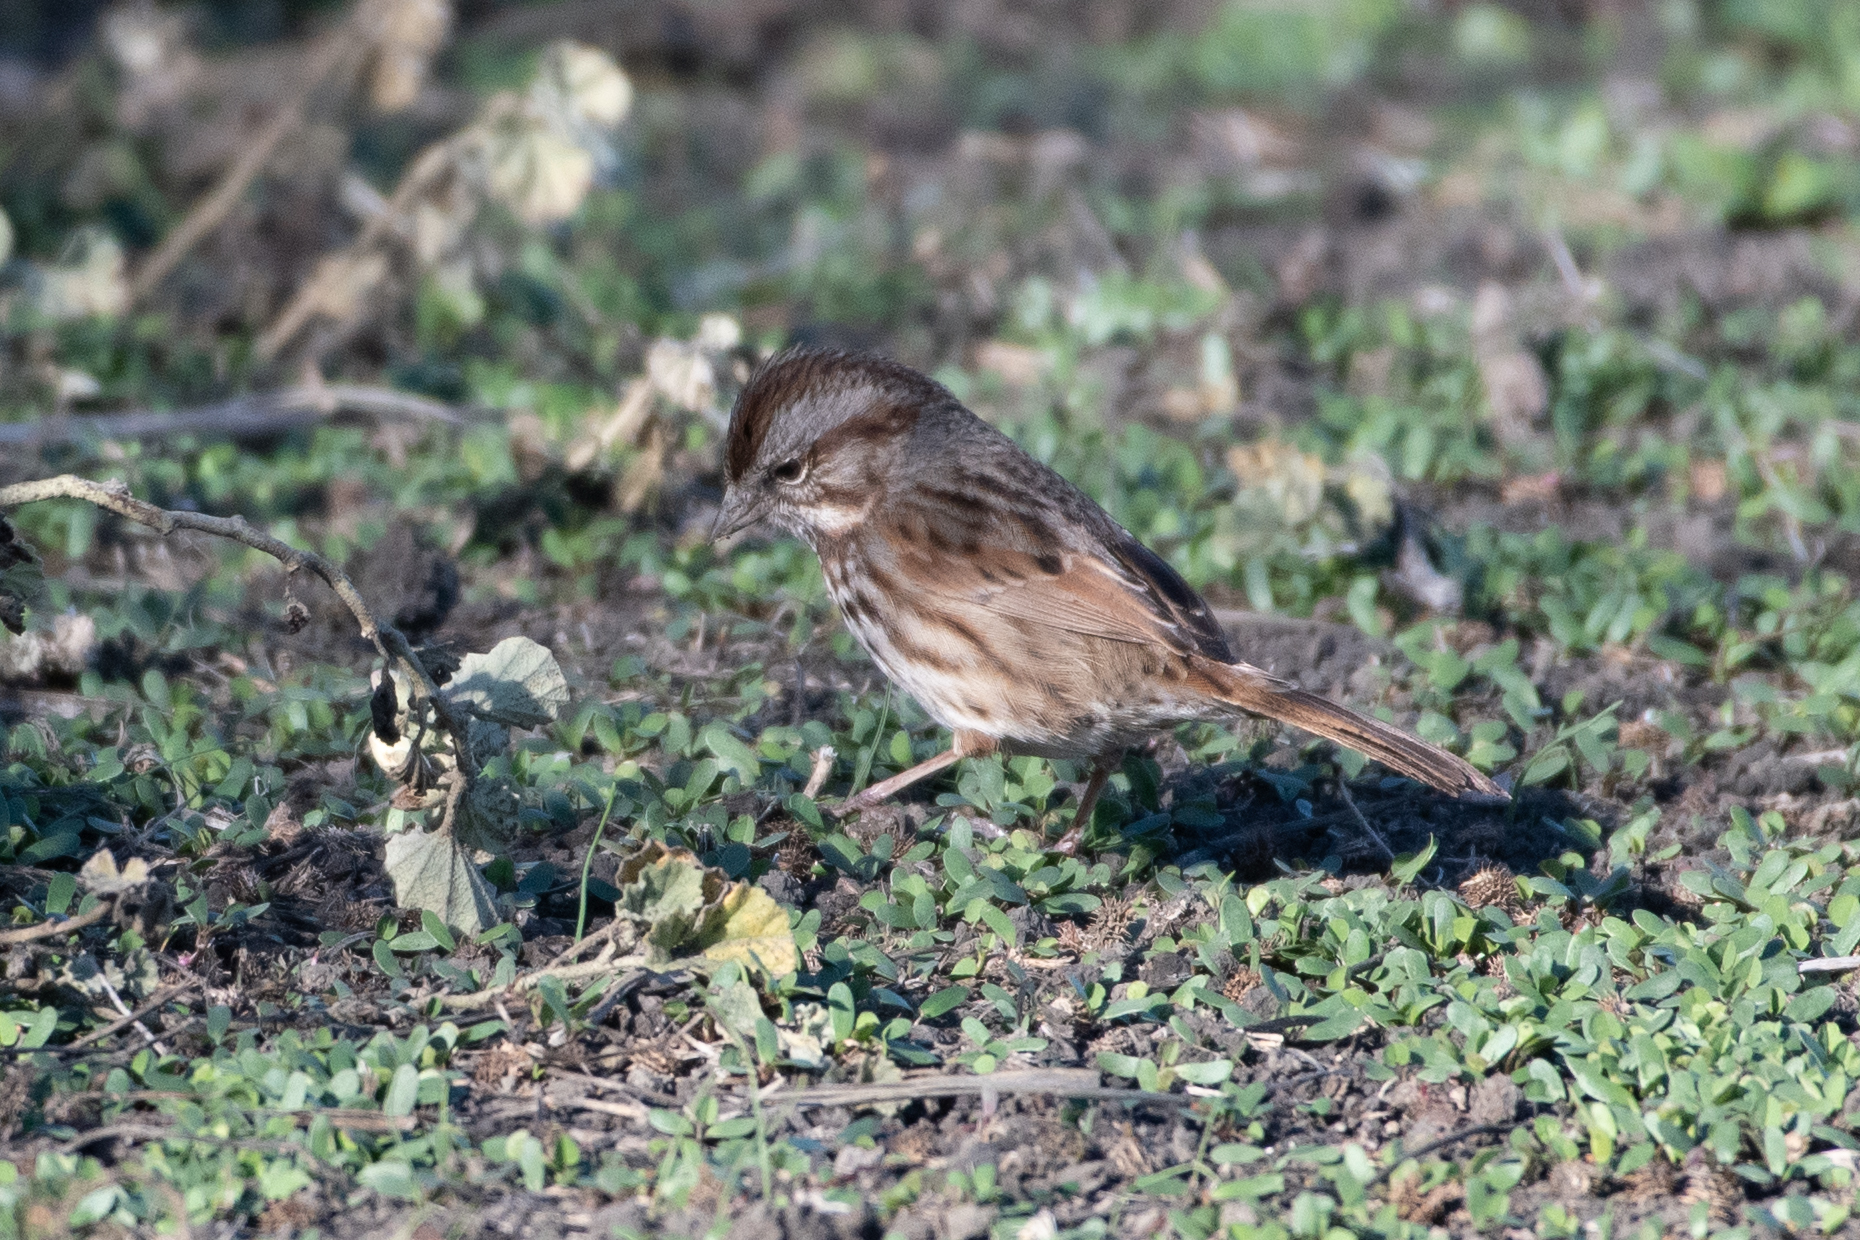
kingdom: Animalia
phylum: Chordata
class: Aves
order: Passeriformes
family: Passerellidae
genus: Melospiza
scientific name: Melospiza melodia
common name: Song sparrow
